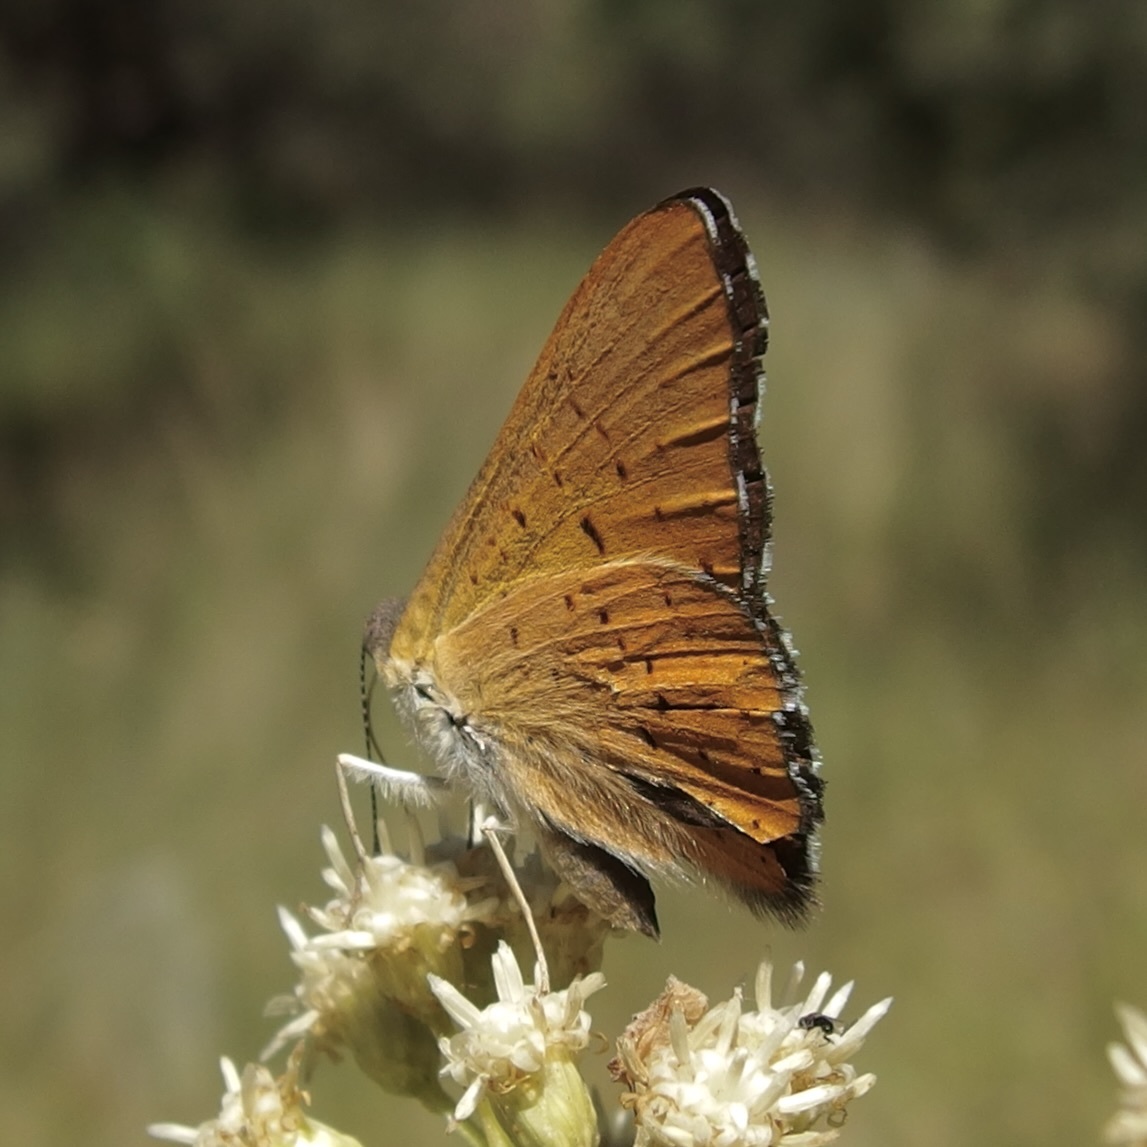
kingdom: Animalia
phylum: Arthropoda
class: Insecta
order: Lepidoptera
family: Riodinidae
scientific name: Riodinidae
